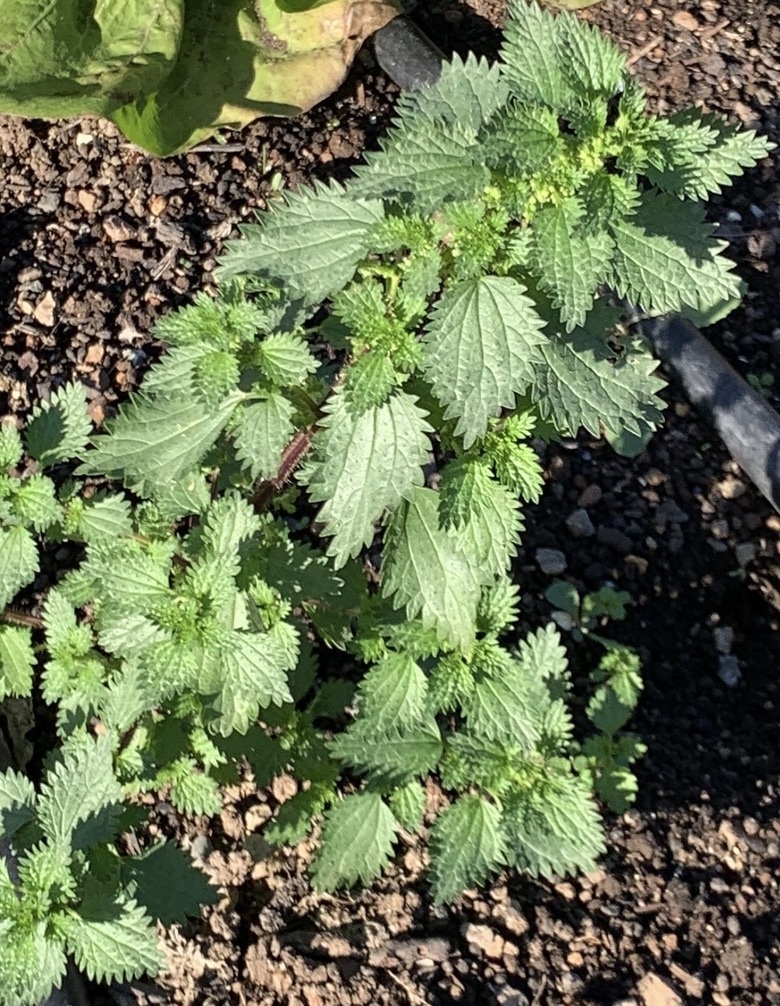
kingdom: Plantae
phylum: Tracheophyta
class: Magnoliopsida
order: Rosales
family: Urticaceae
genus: Urtica
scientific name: Urtica urens
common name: Dwarf nettle
